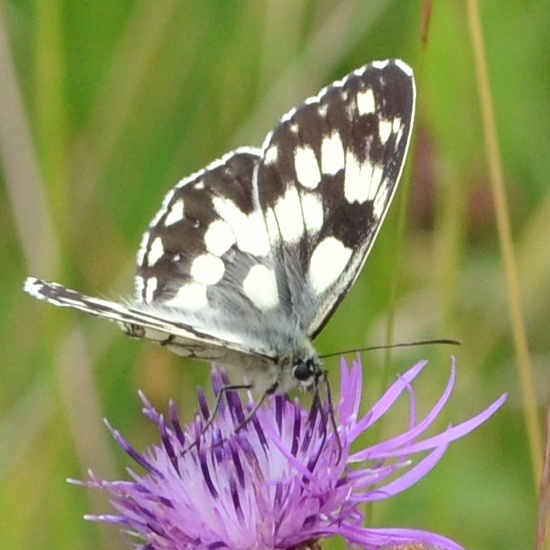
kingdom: Animalia
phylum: Arthropoda
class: Insecta
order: Lepidoptera
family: Nymphalidae
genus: Melanargia
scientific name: Melanargia galathea
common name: Marbled white
